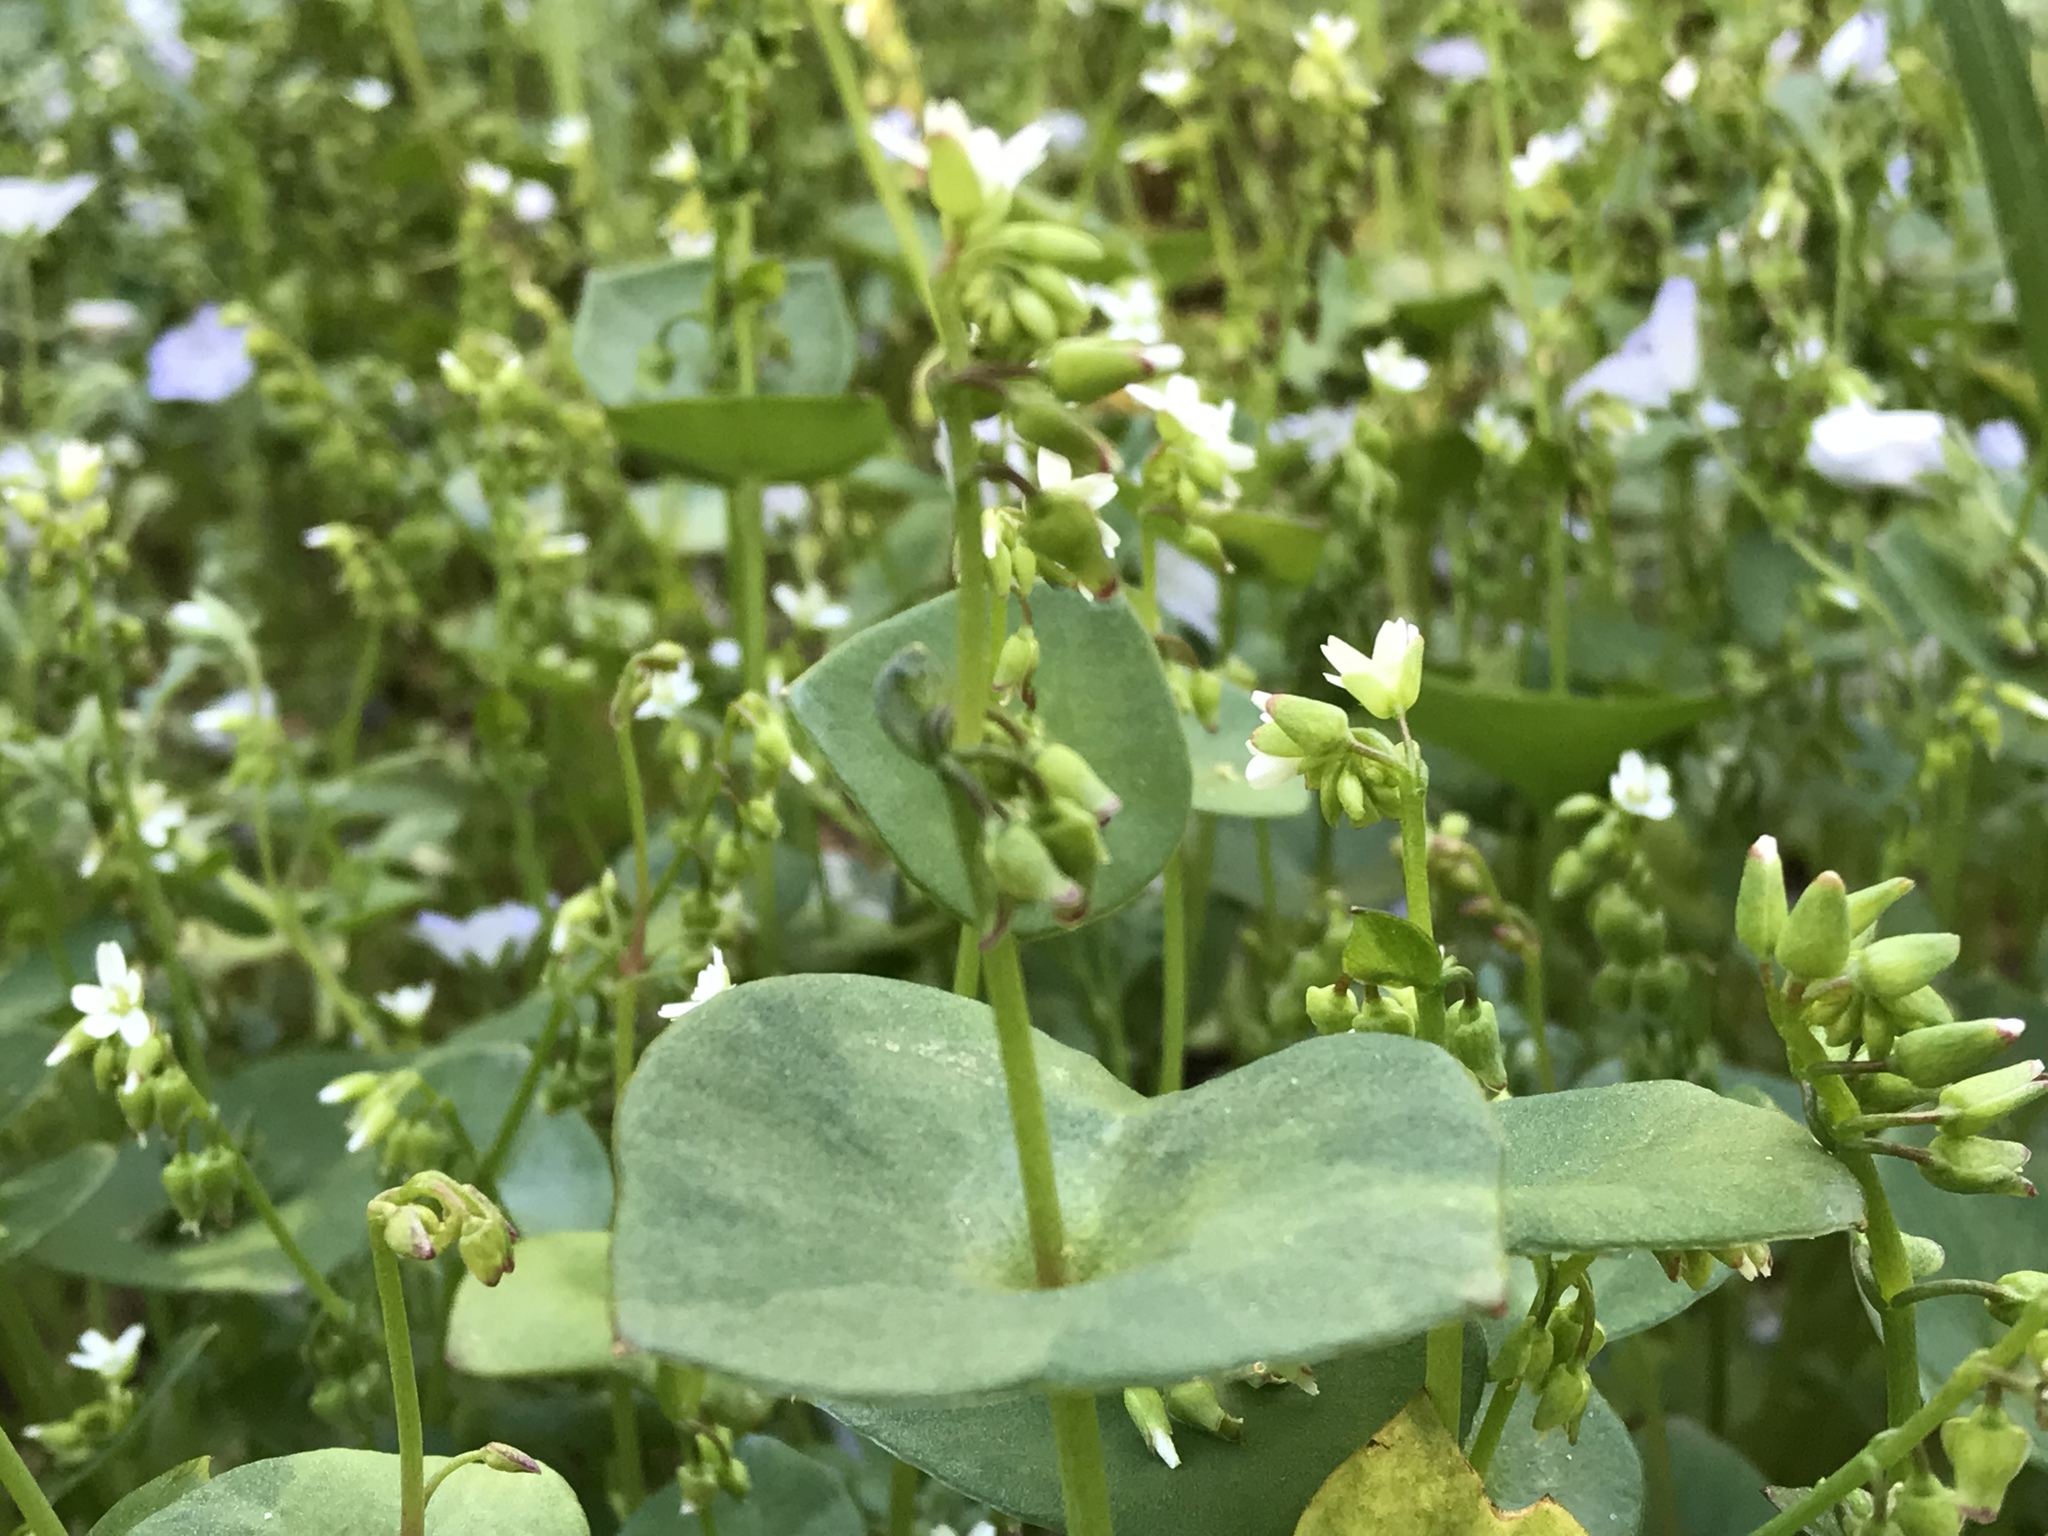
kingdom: Plantae
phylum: Tracheophyta
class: Magnoliopsida
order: Caryophyllales
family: Montiaceae
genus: Claytonia
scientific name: Claytonia perfoliata
